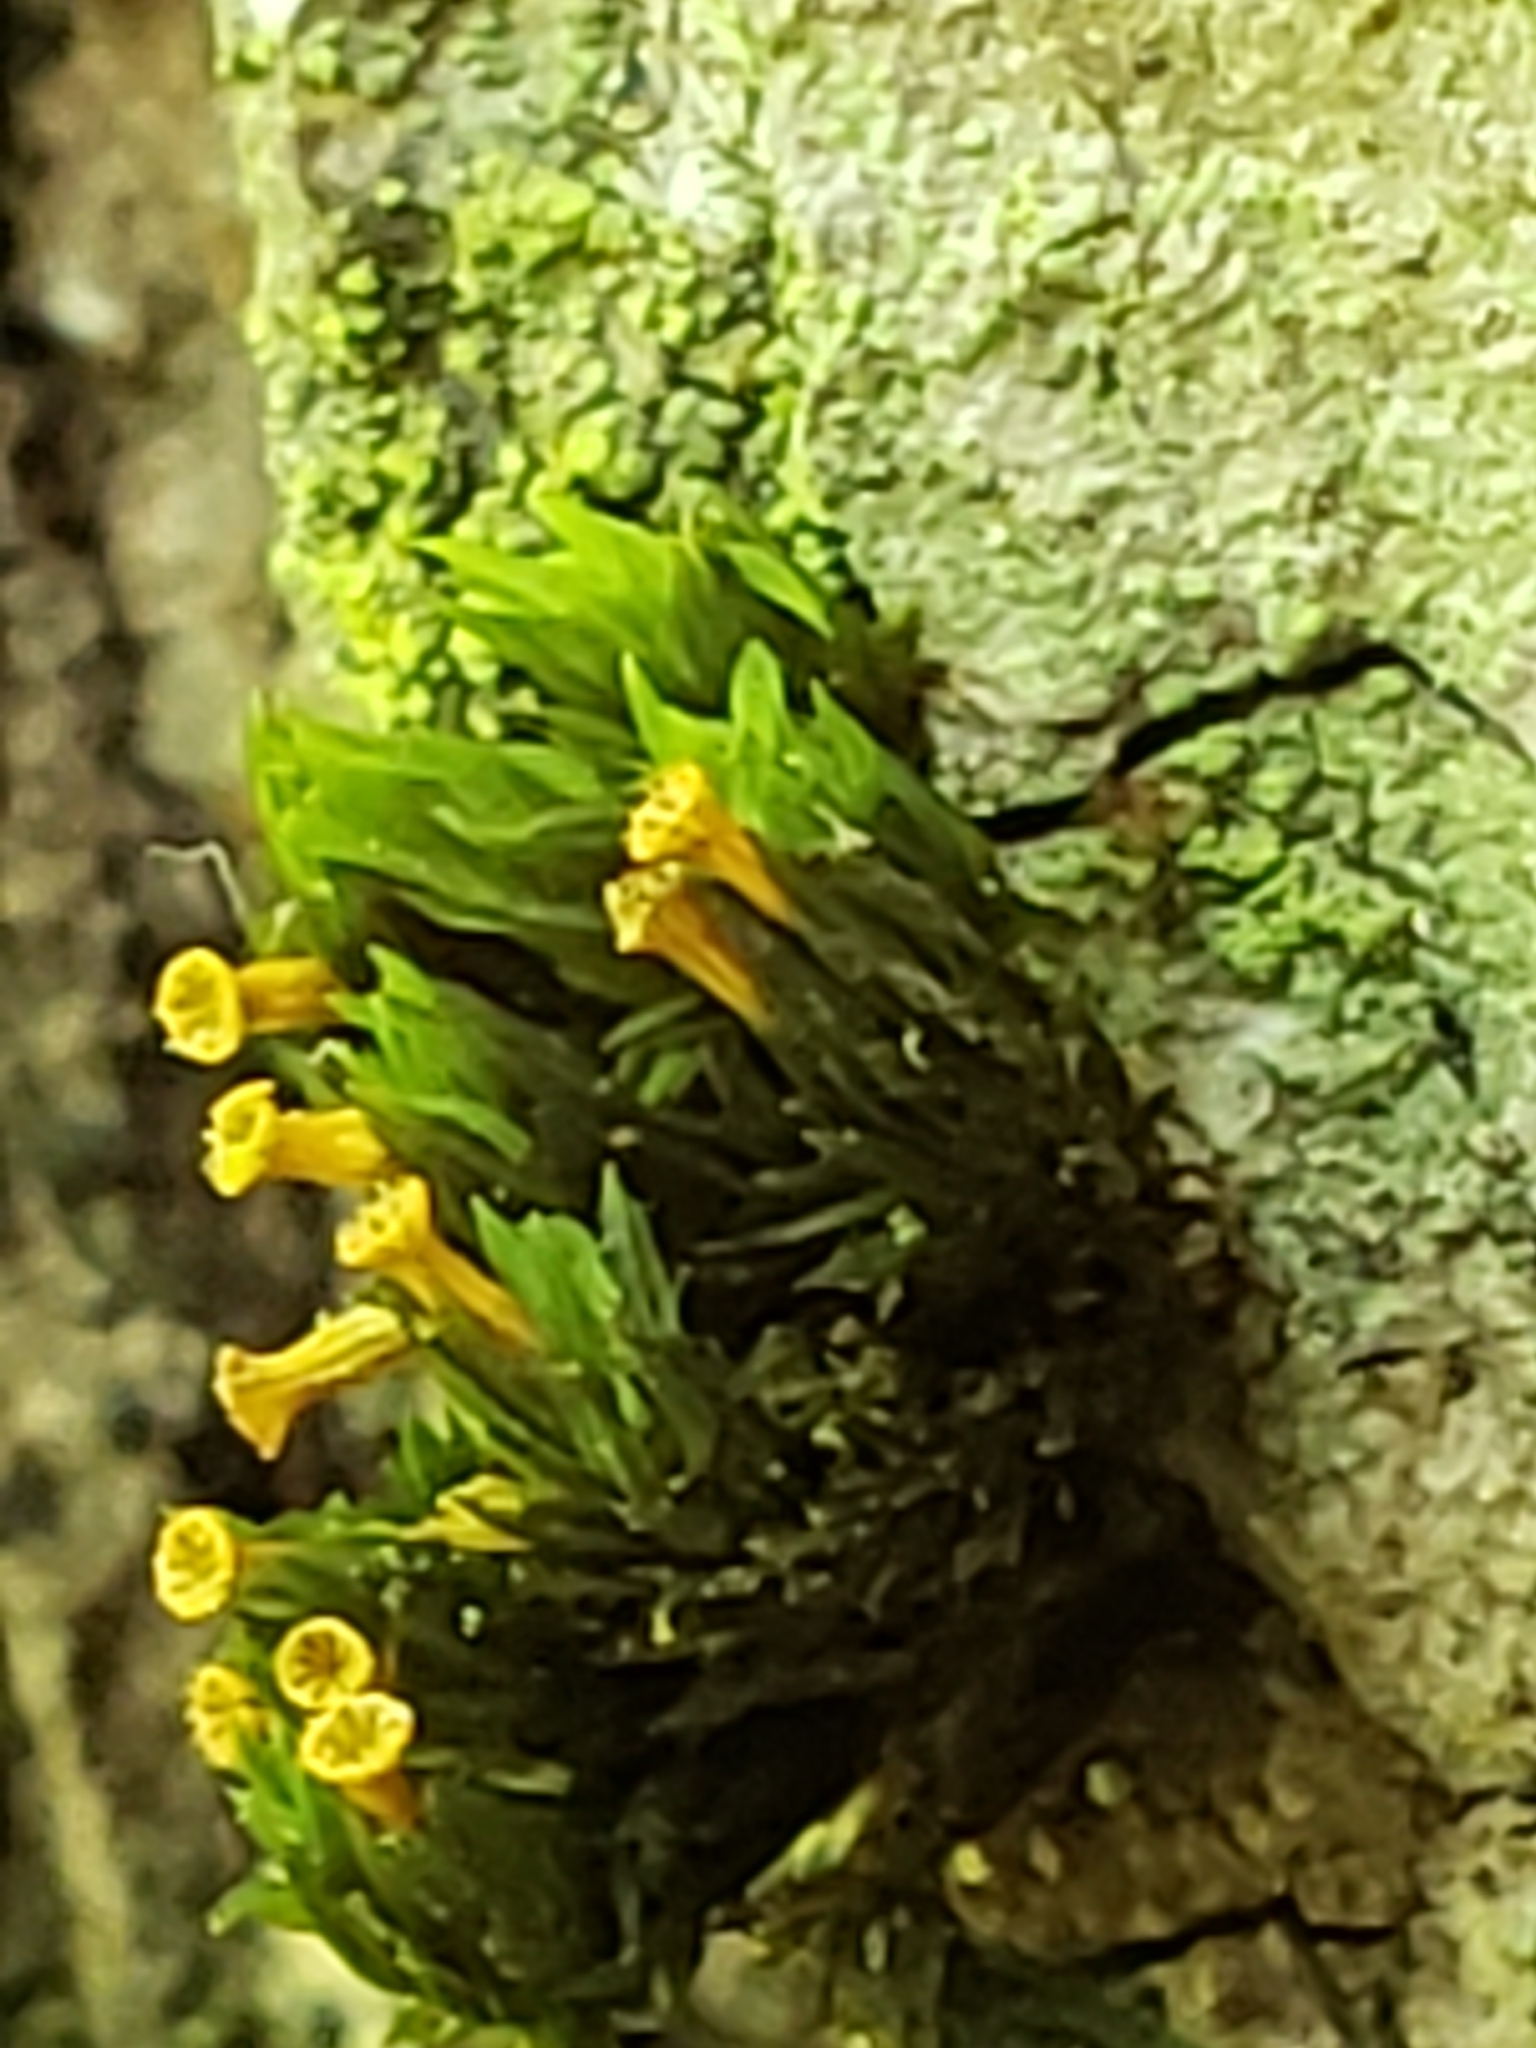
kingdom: Plantae
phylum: Bryophyta
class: Bryopsida
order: Orthotrichales
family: Orthotrichaceae
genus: Orthotrichum
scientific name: Orthotrichum stellatum
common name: Starlike bristle moss
